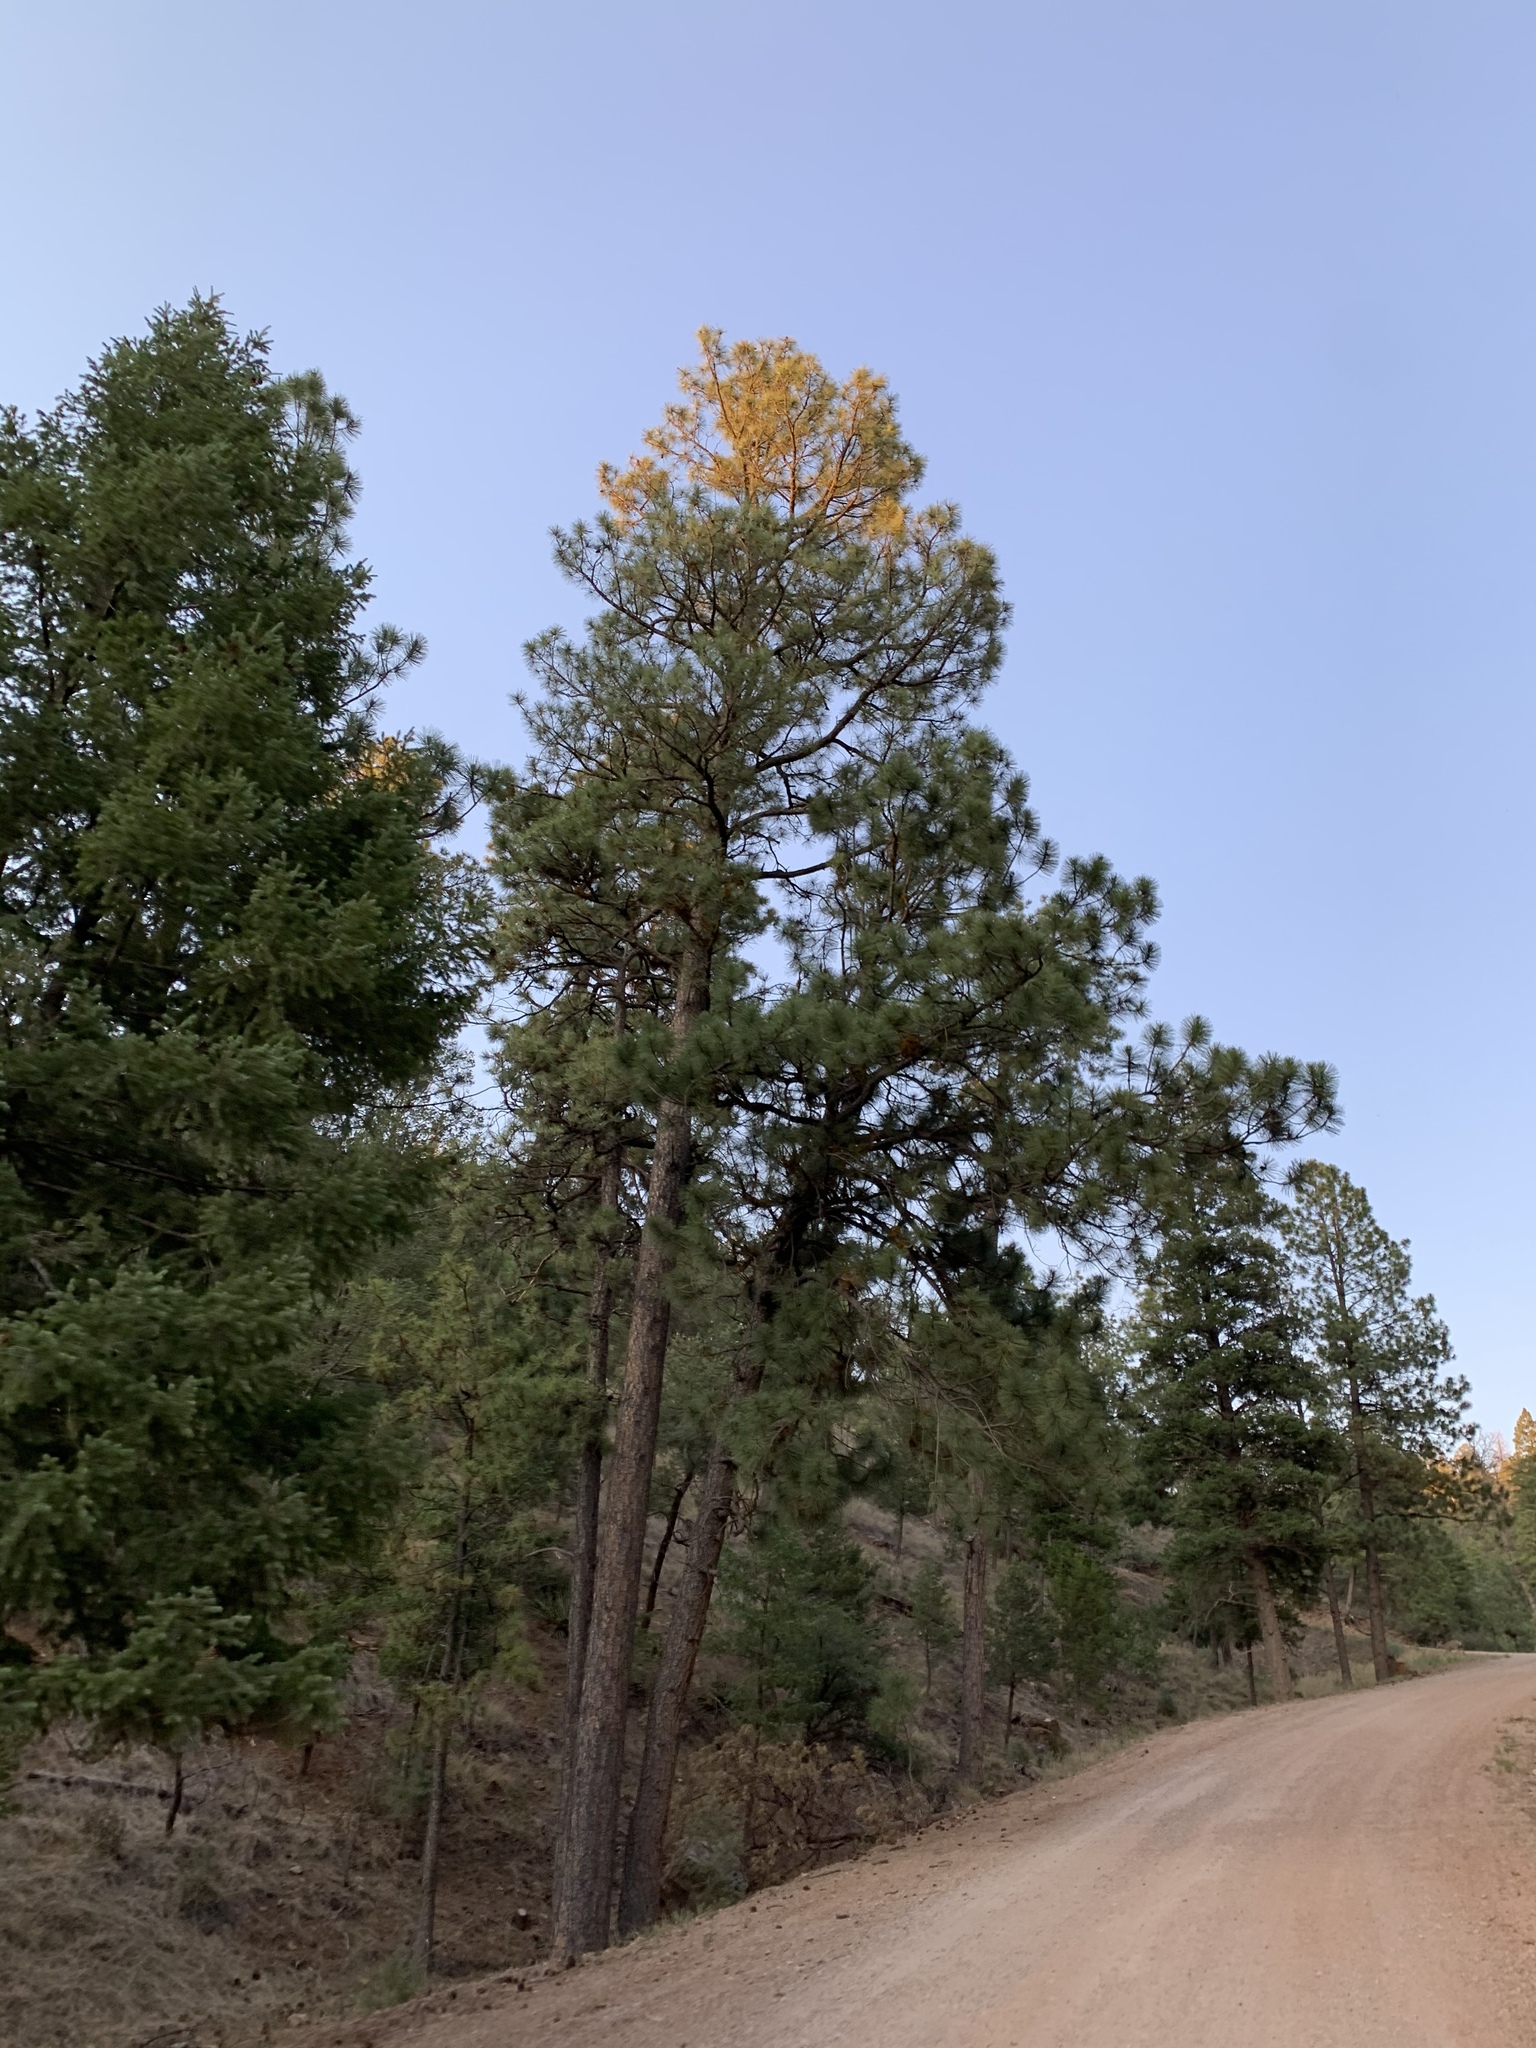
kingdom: Plantae
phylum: Tracheophyta
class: Pinopsida
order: Pinales
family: Pinaceae
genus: Pinus
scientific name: Pinus ponderosa
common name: Western yellow-pine
